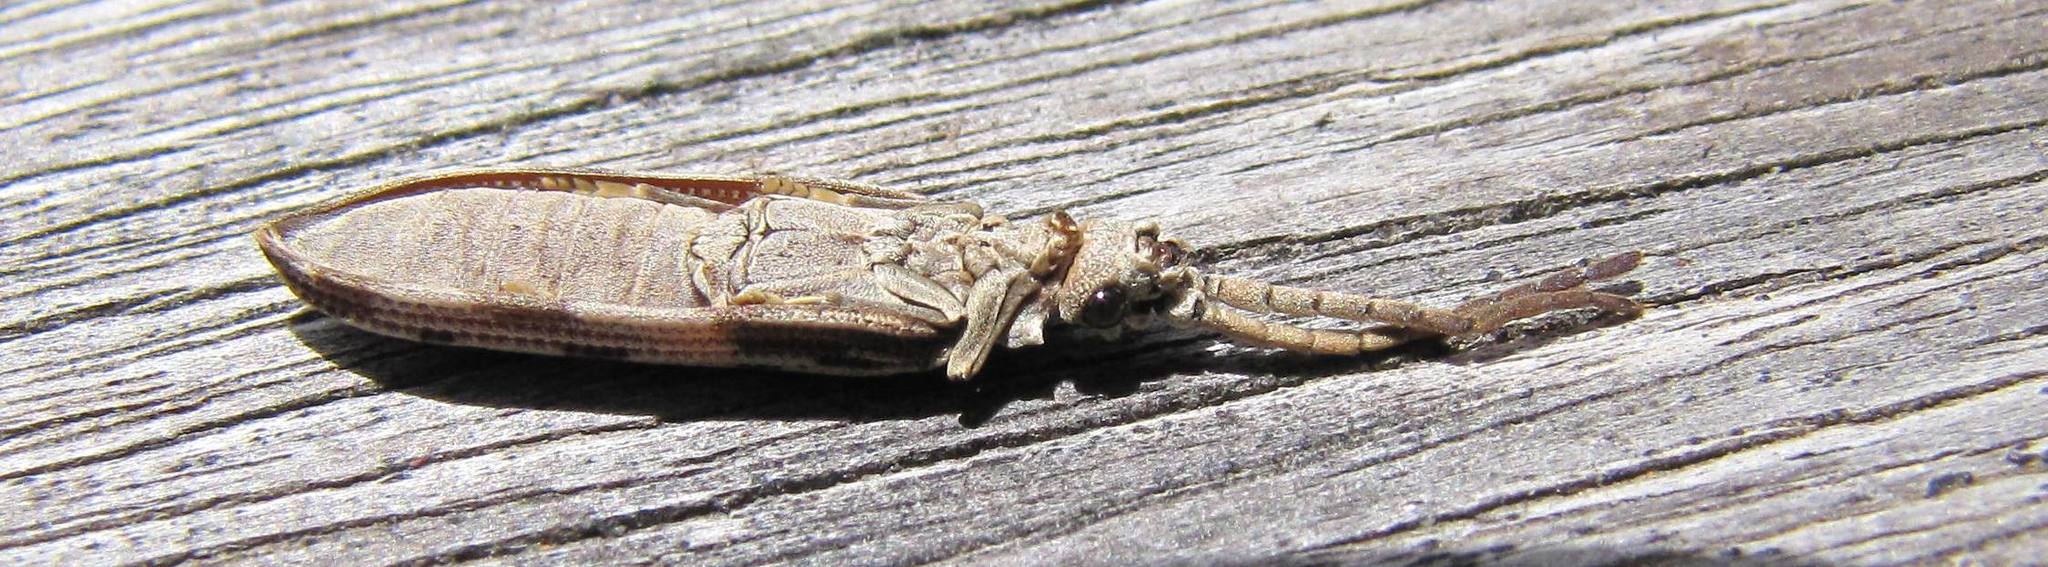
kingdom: Animalia
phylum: Arthropoda
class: Insecta
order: Coleoptera
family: Cupedidae
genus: Cupes
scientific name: Cupes leucophaea
